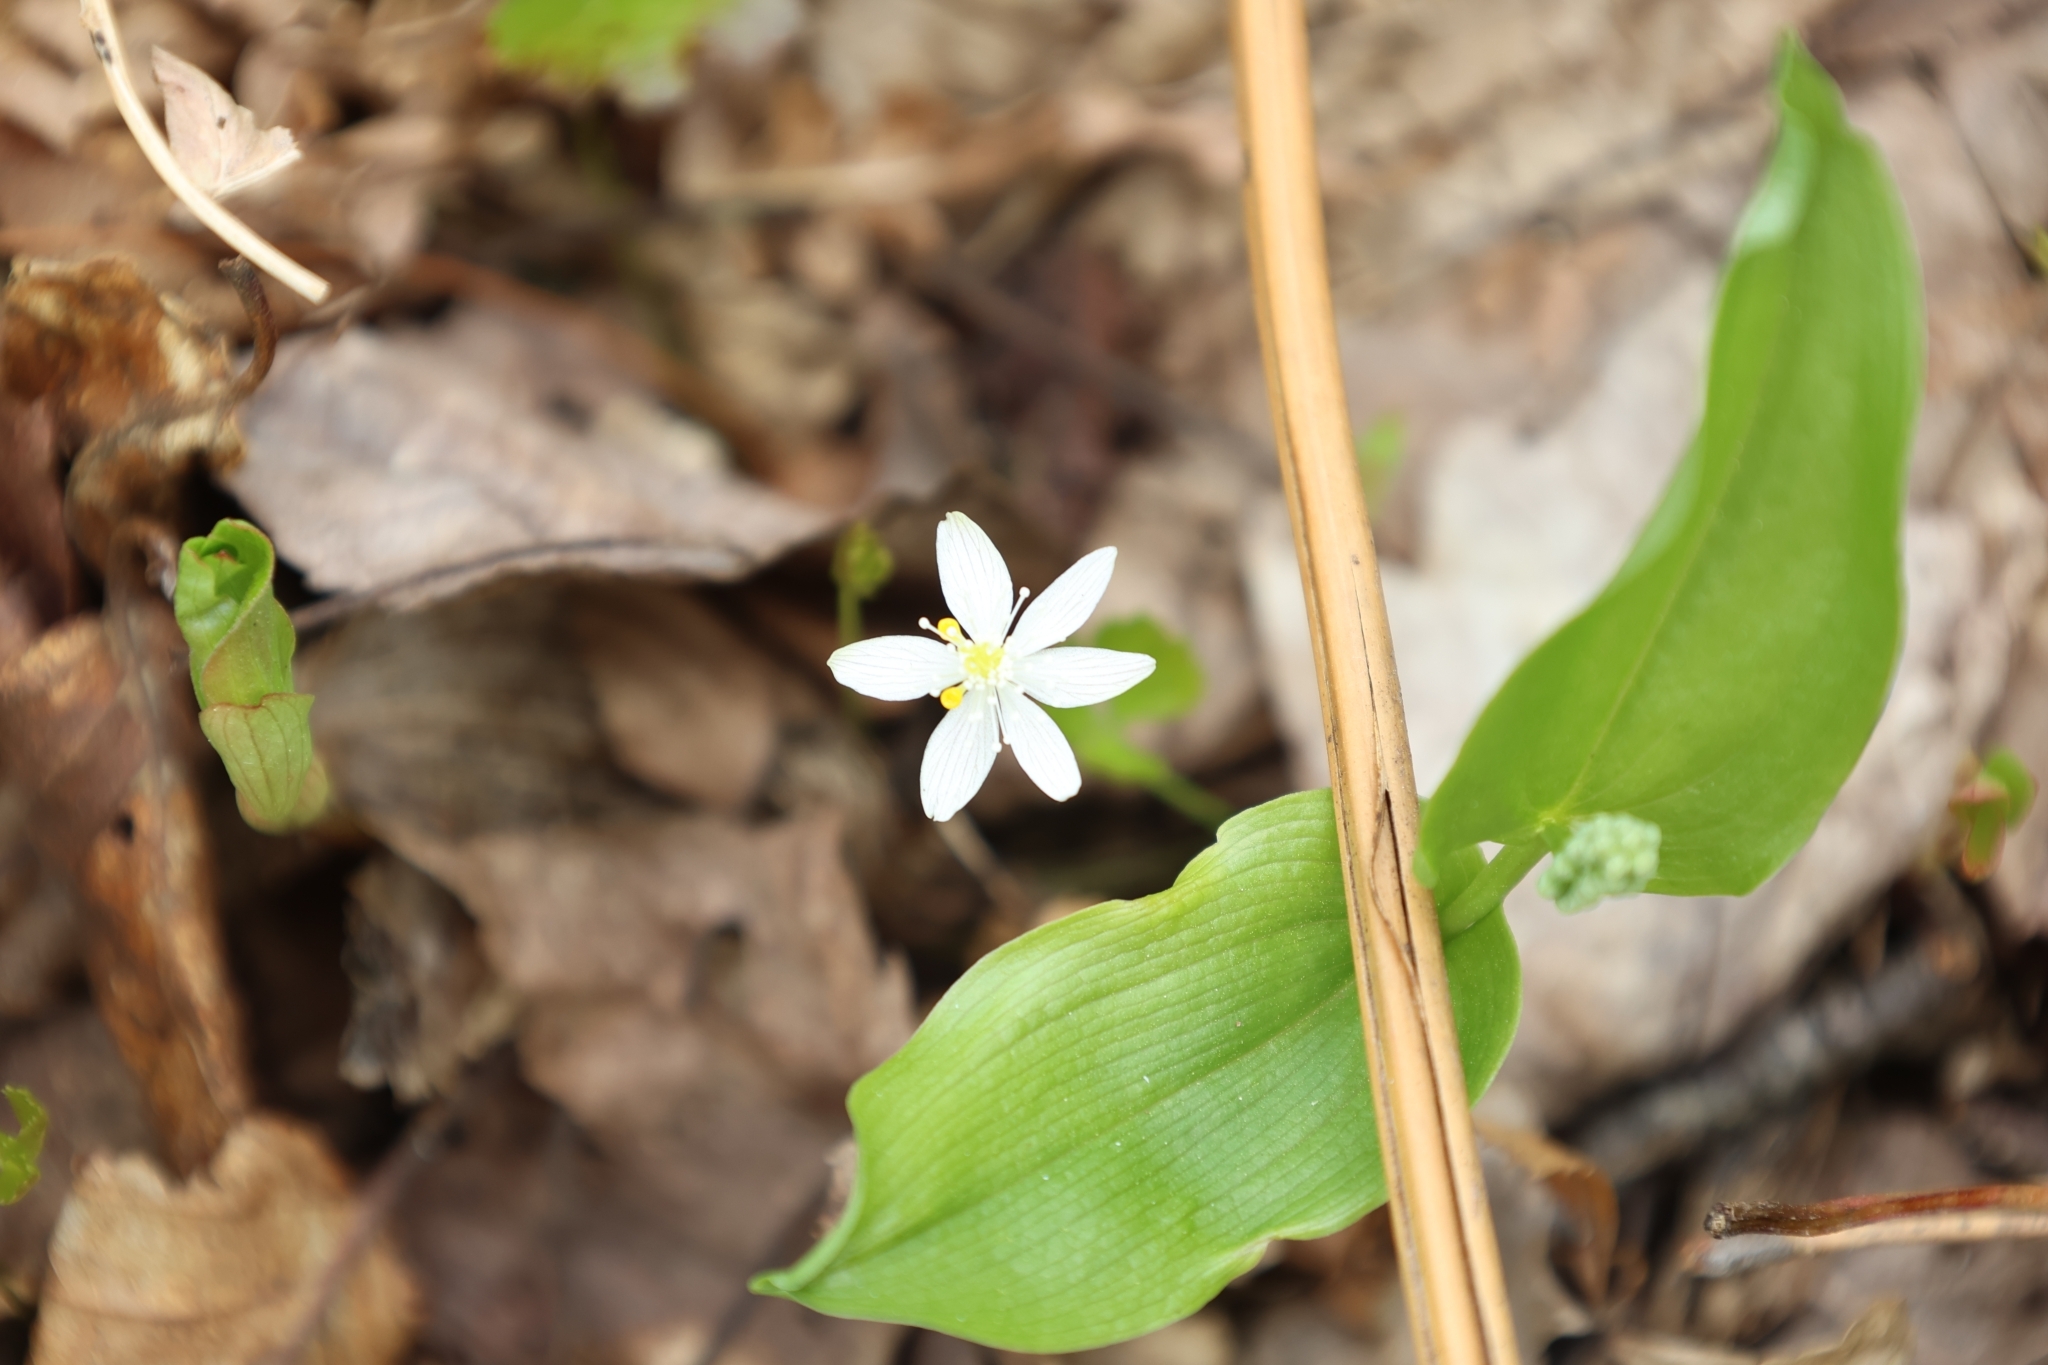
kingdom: Plantae
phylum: Tracheophyta
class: Magnoliopsida
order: Ranunculales
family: Ranunculaceae
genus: Coptis
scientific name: Coptis trifolia
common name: Canker-root
